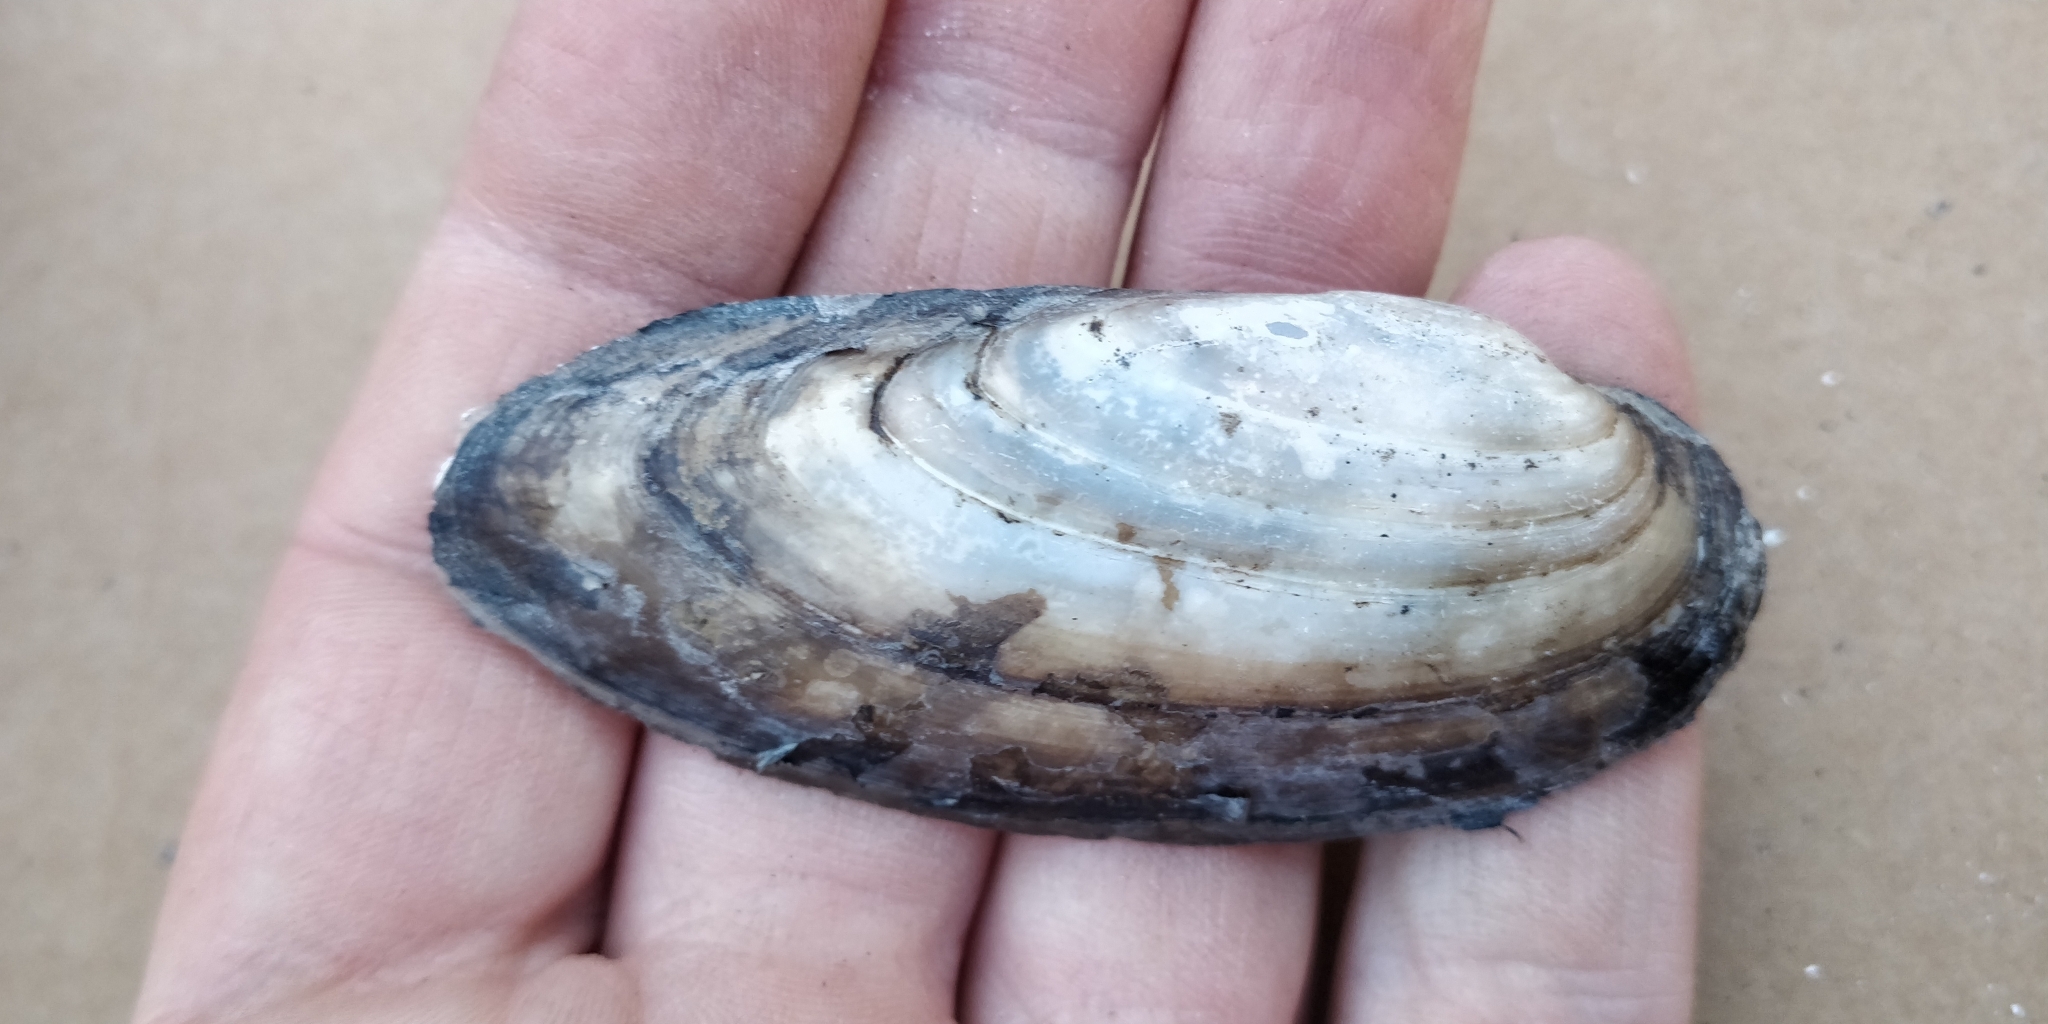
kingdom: Animalia
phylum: Mollusca
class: Bivalvia
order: Unionida
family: Unionidae
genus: Lampsilis
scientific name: Lampsilis teres
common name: Yellow sandshell
